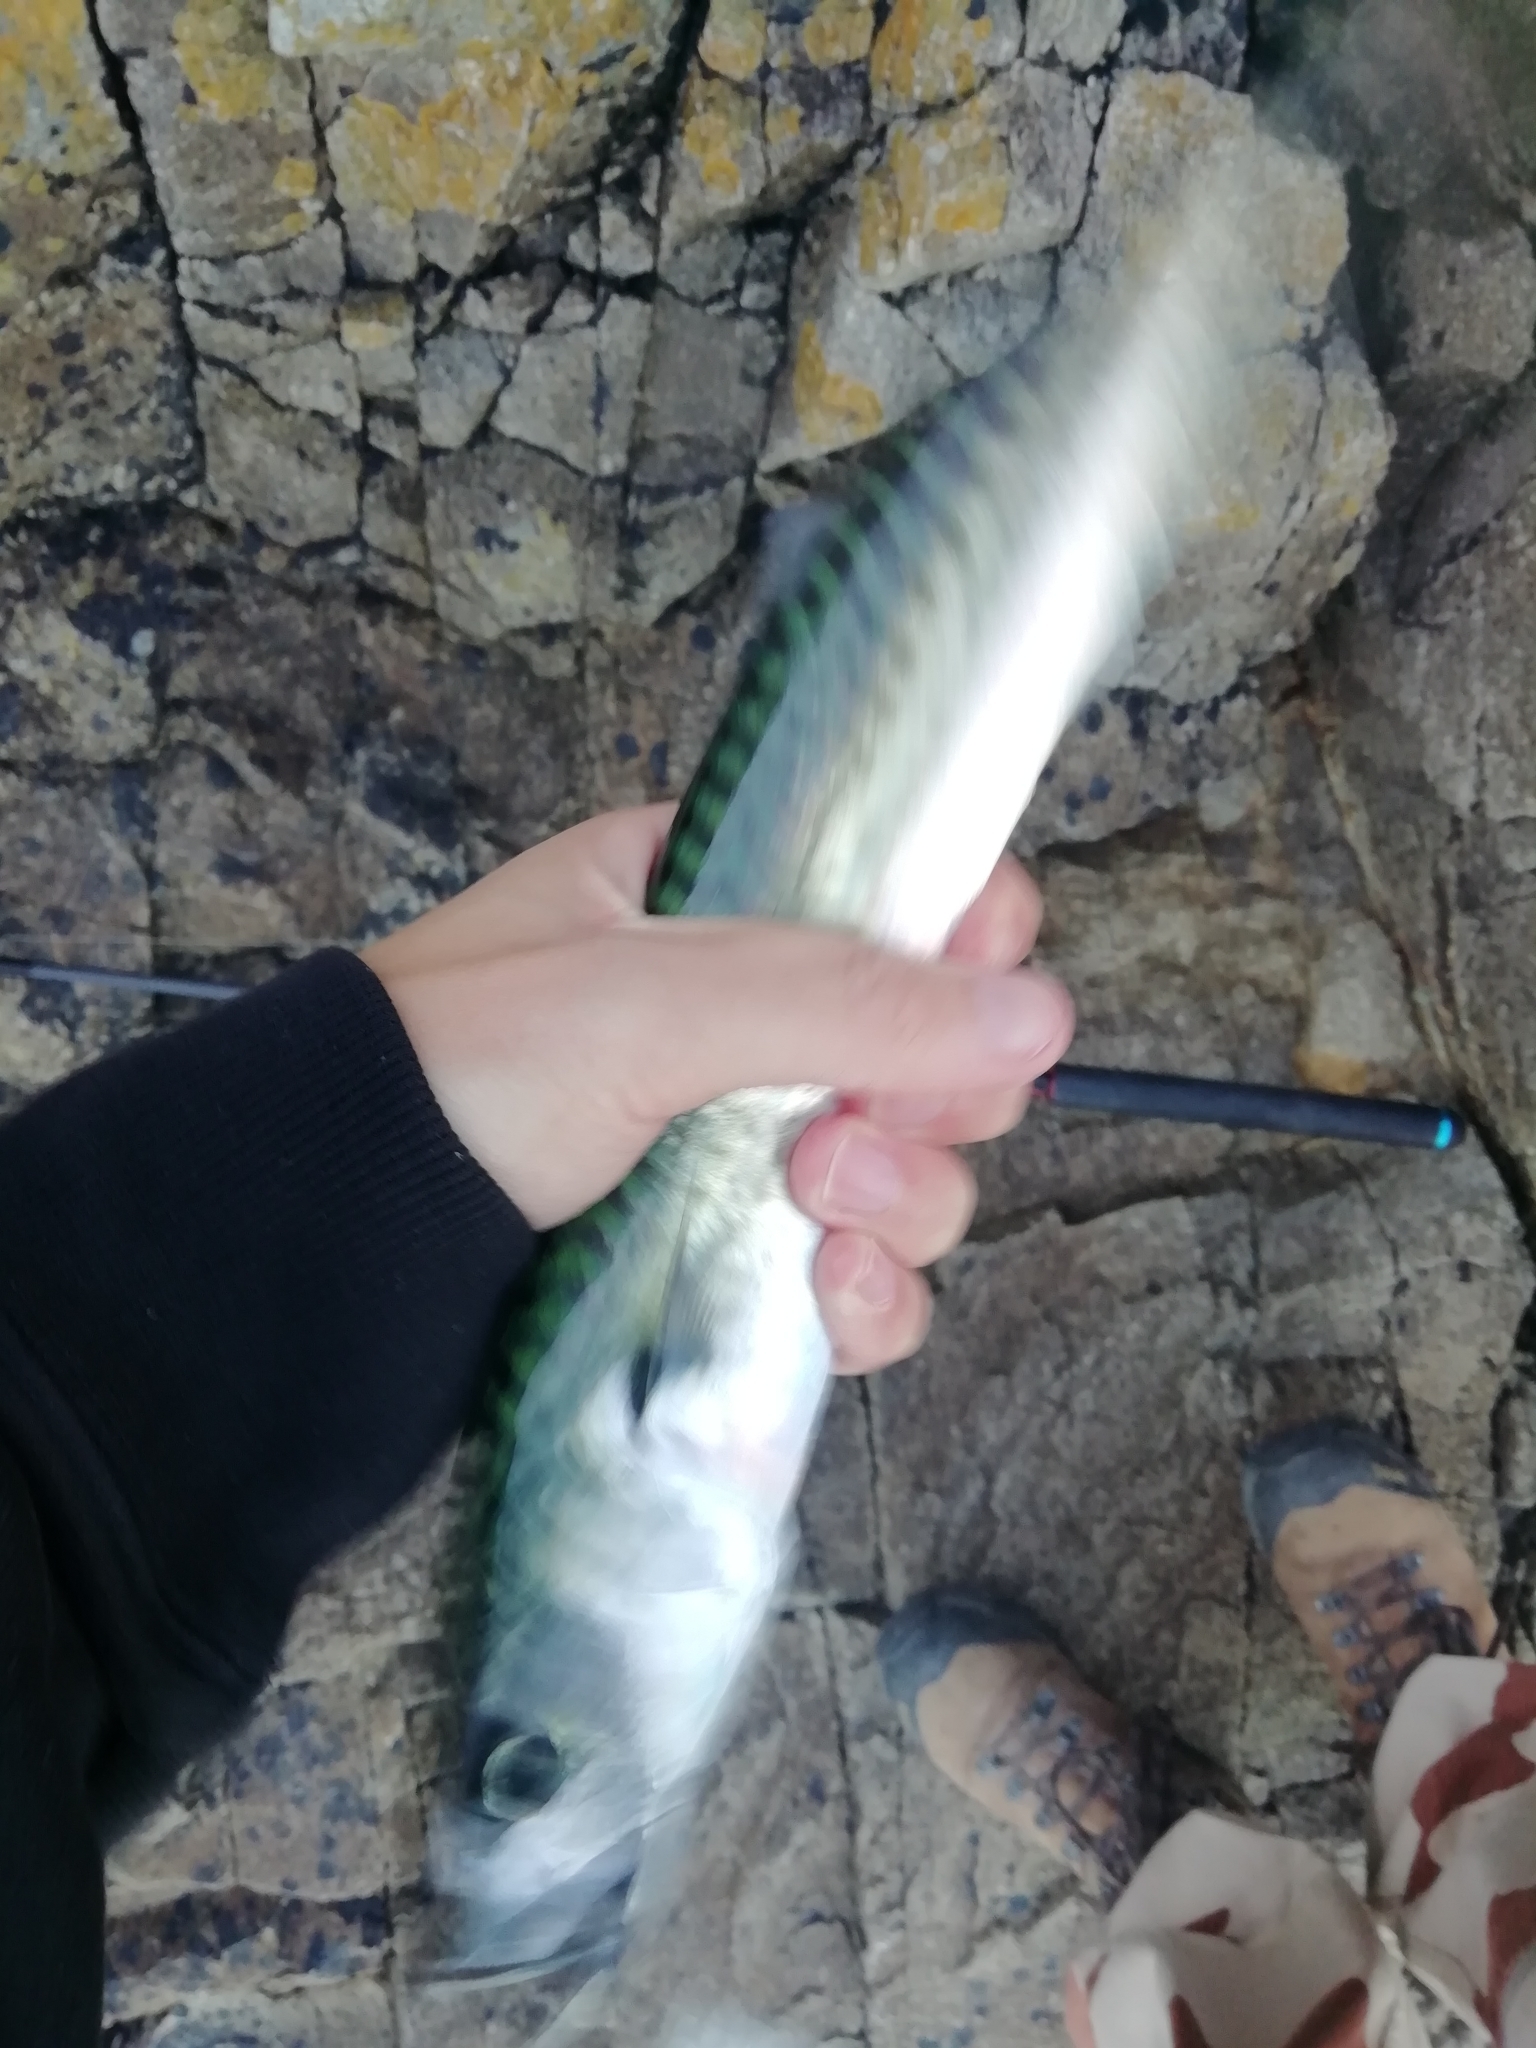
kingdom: Animalia
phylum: Chordata
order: Perciformes
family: Scombridae
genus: Scomber
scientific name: Scomber scombrus
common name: Mackerel
